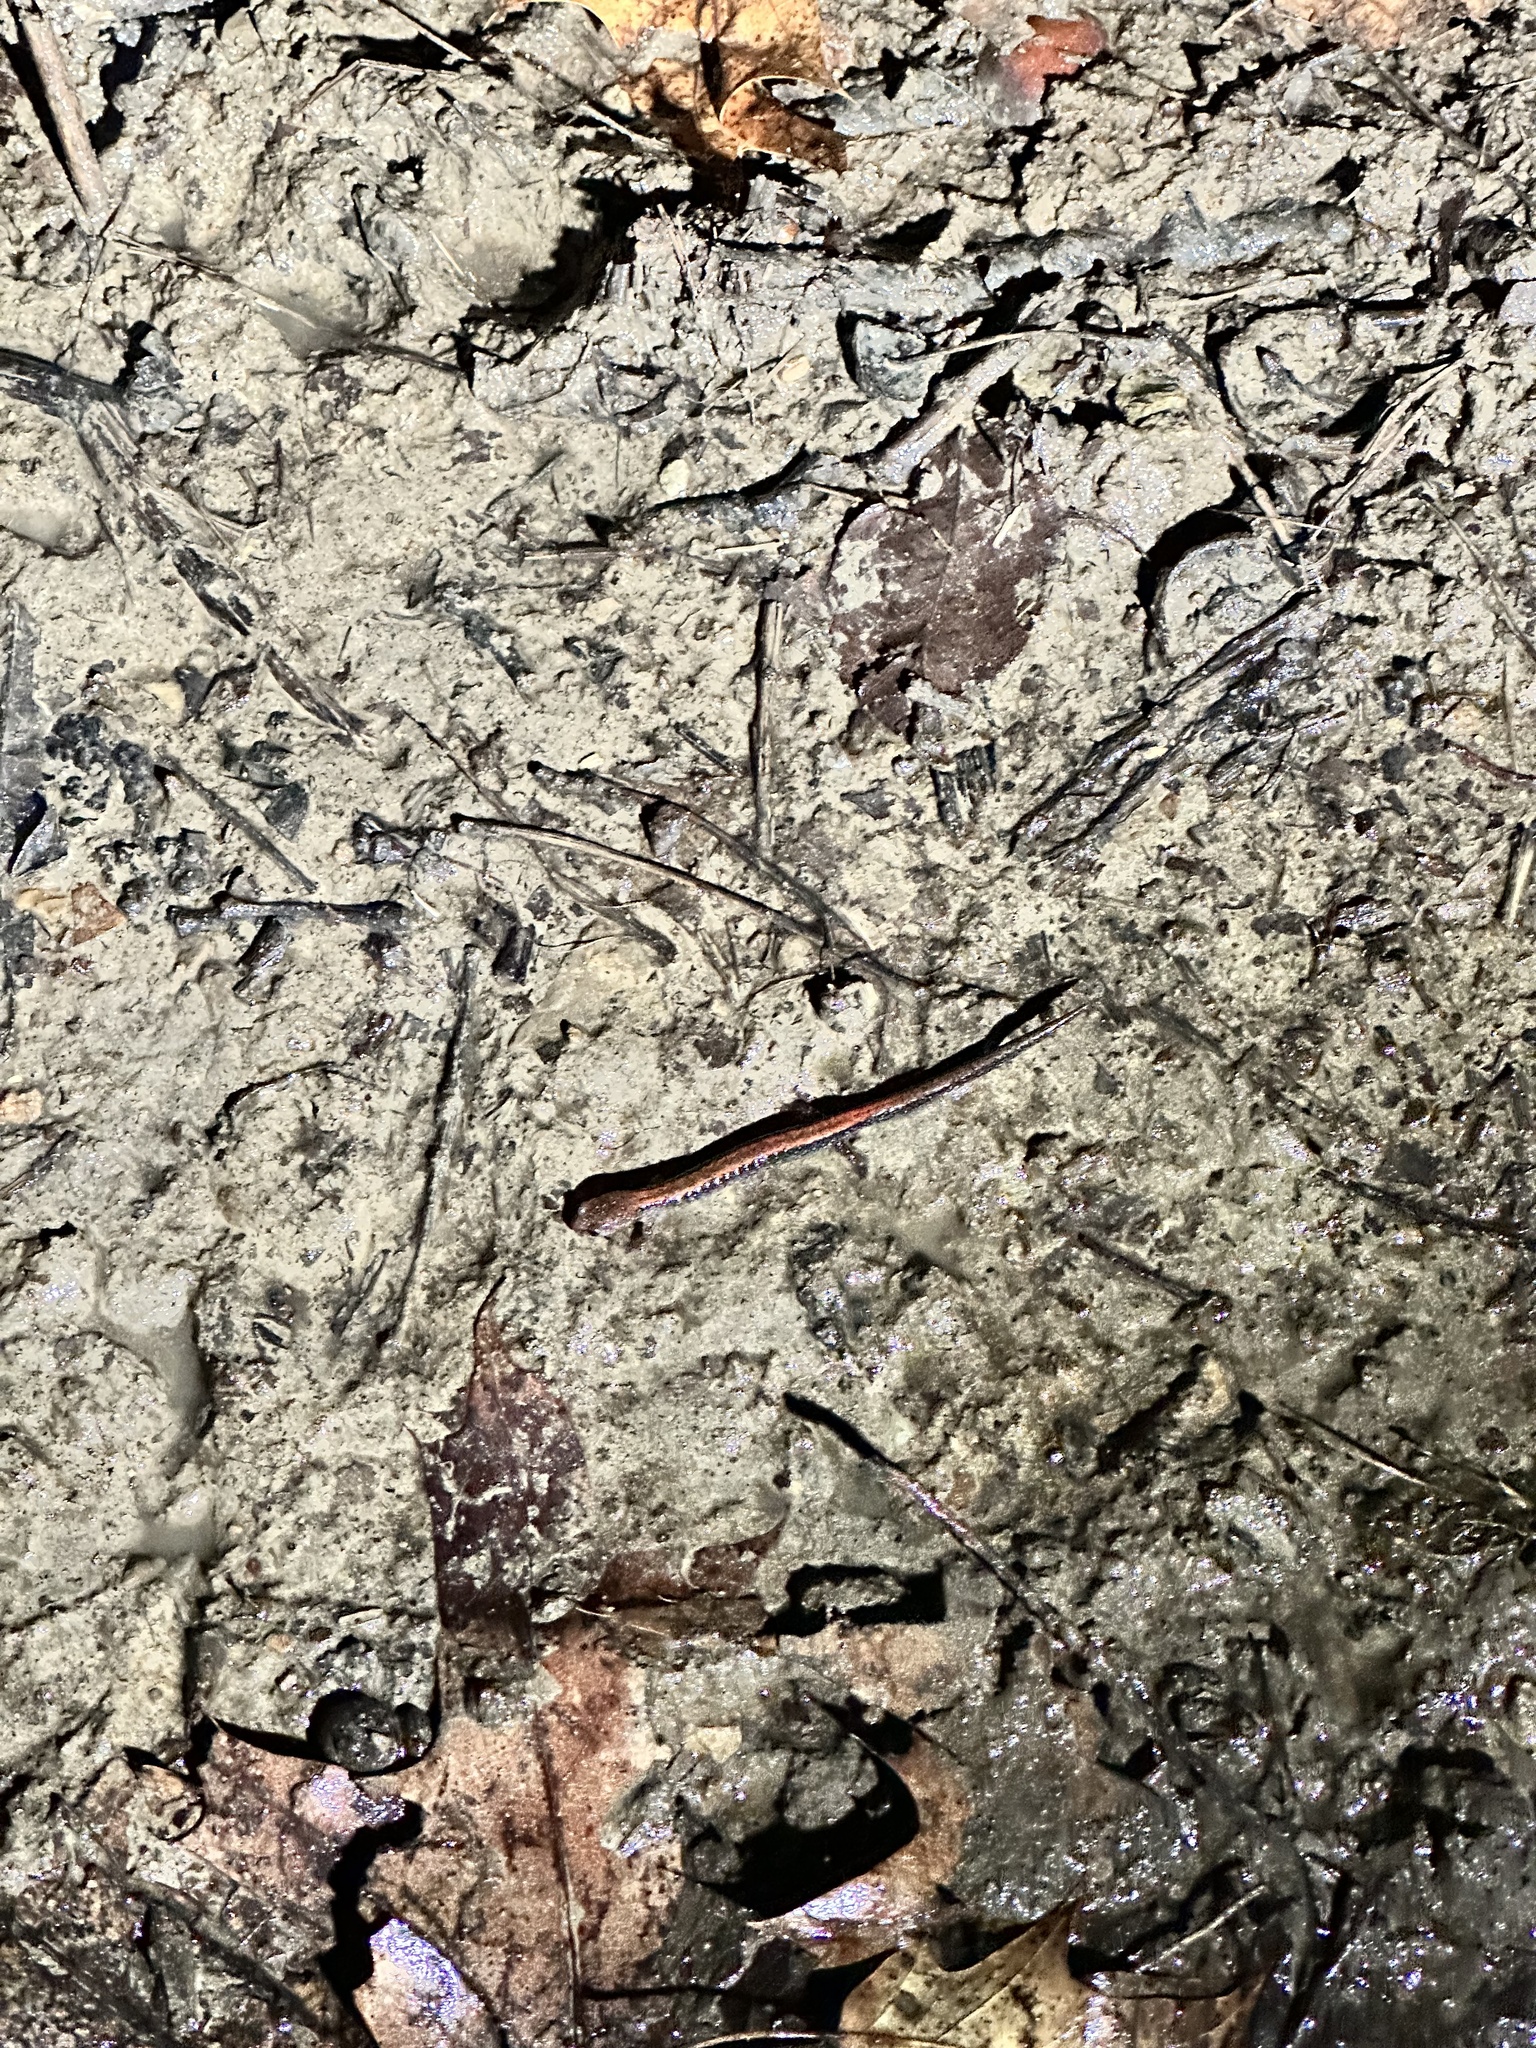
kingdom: Animalia
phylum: Chordata
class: Amphibia
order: Caudata
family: Plethodontidae
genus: Plethodon
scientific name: Plethodon cinereus
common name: Redback salamander
